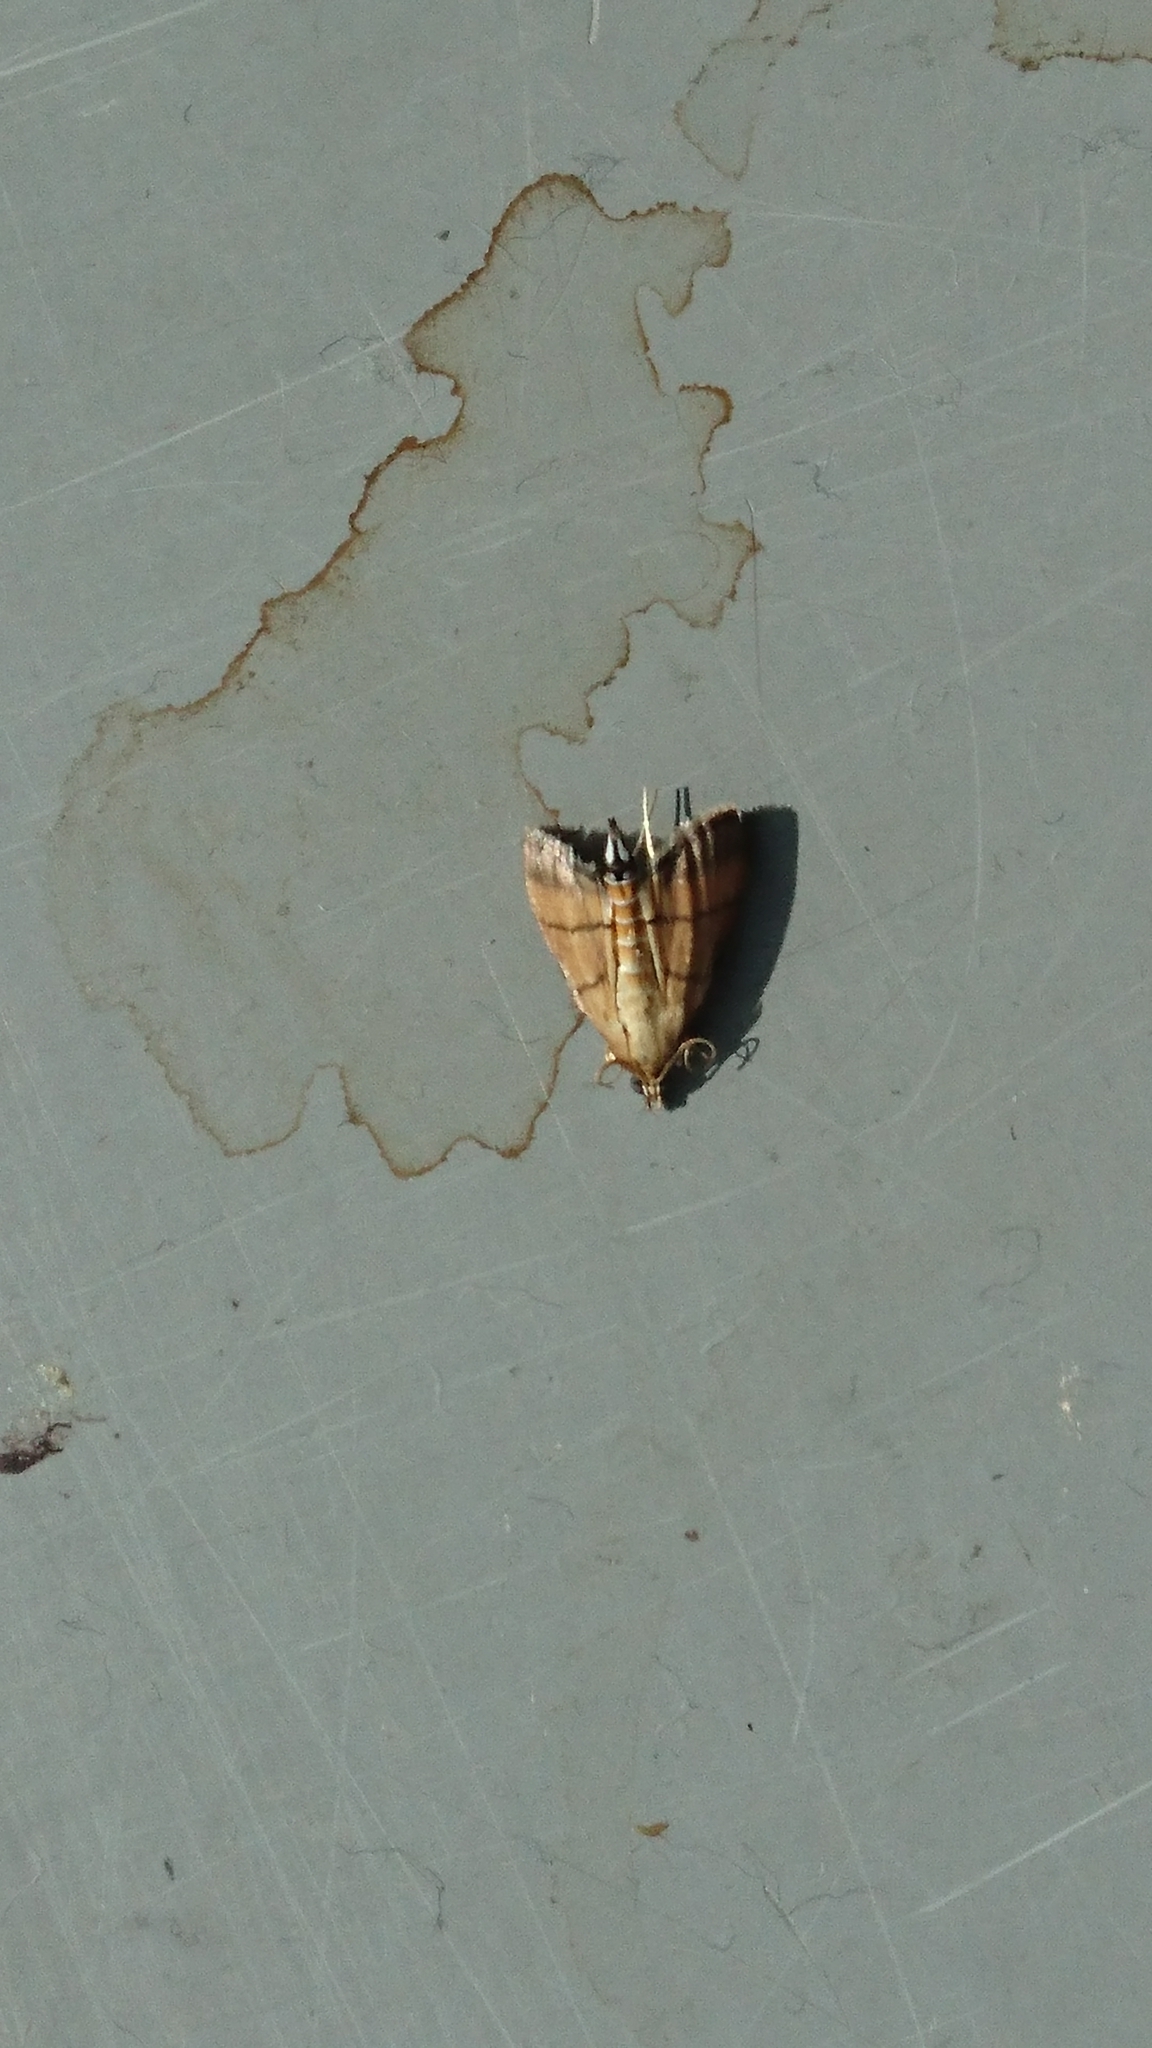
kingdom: Animalia
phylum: Arthropoda
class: Insecta
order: Lepidoptera
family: Crambidae
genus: Cnaphalocrocis
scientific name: Cnaphalocrocis medinalis
